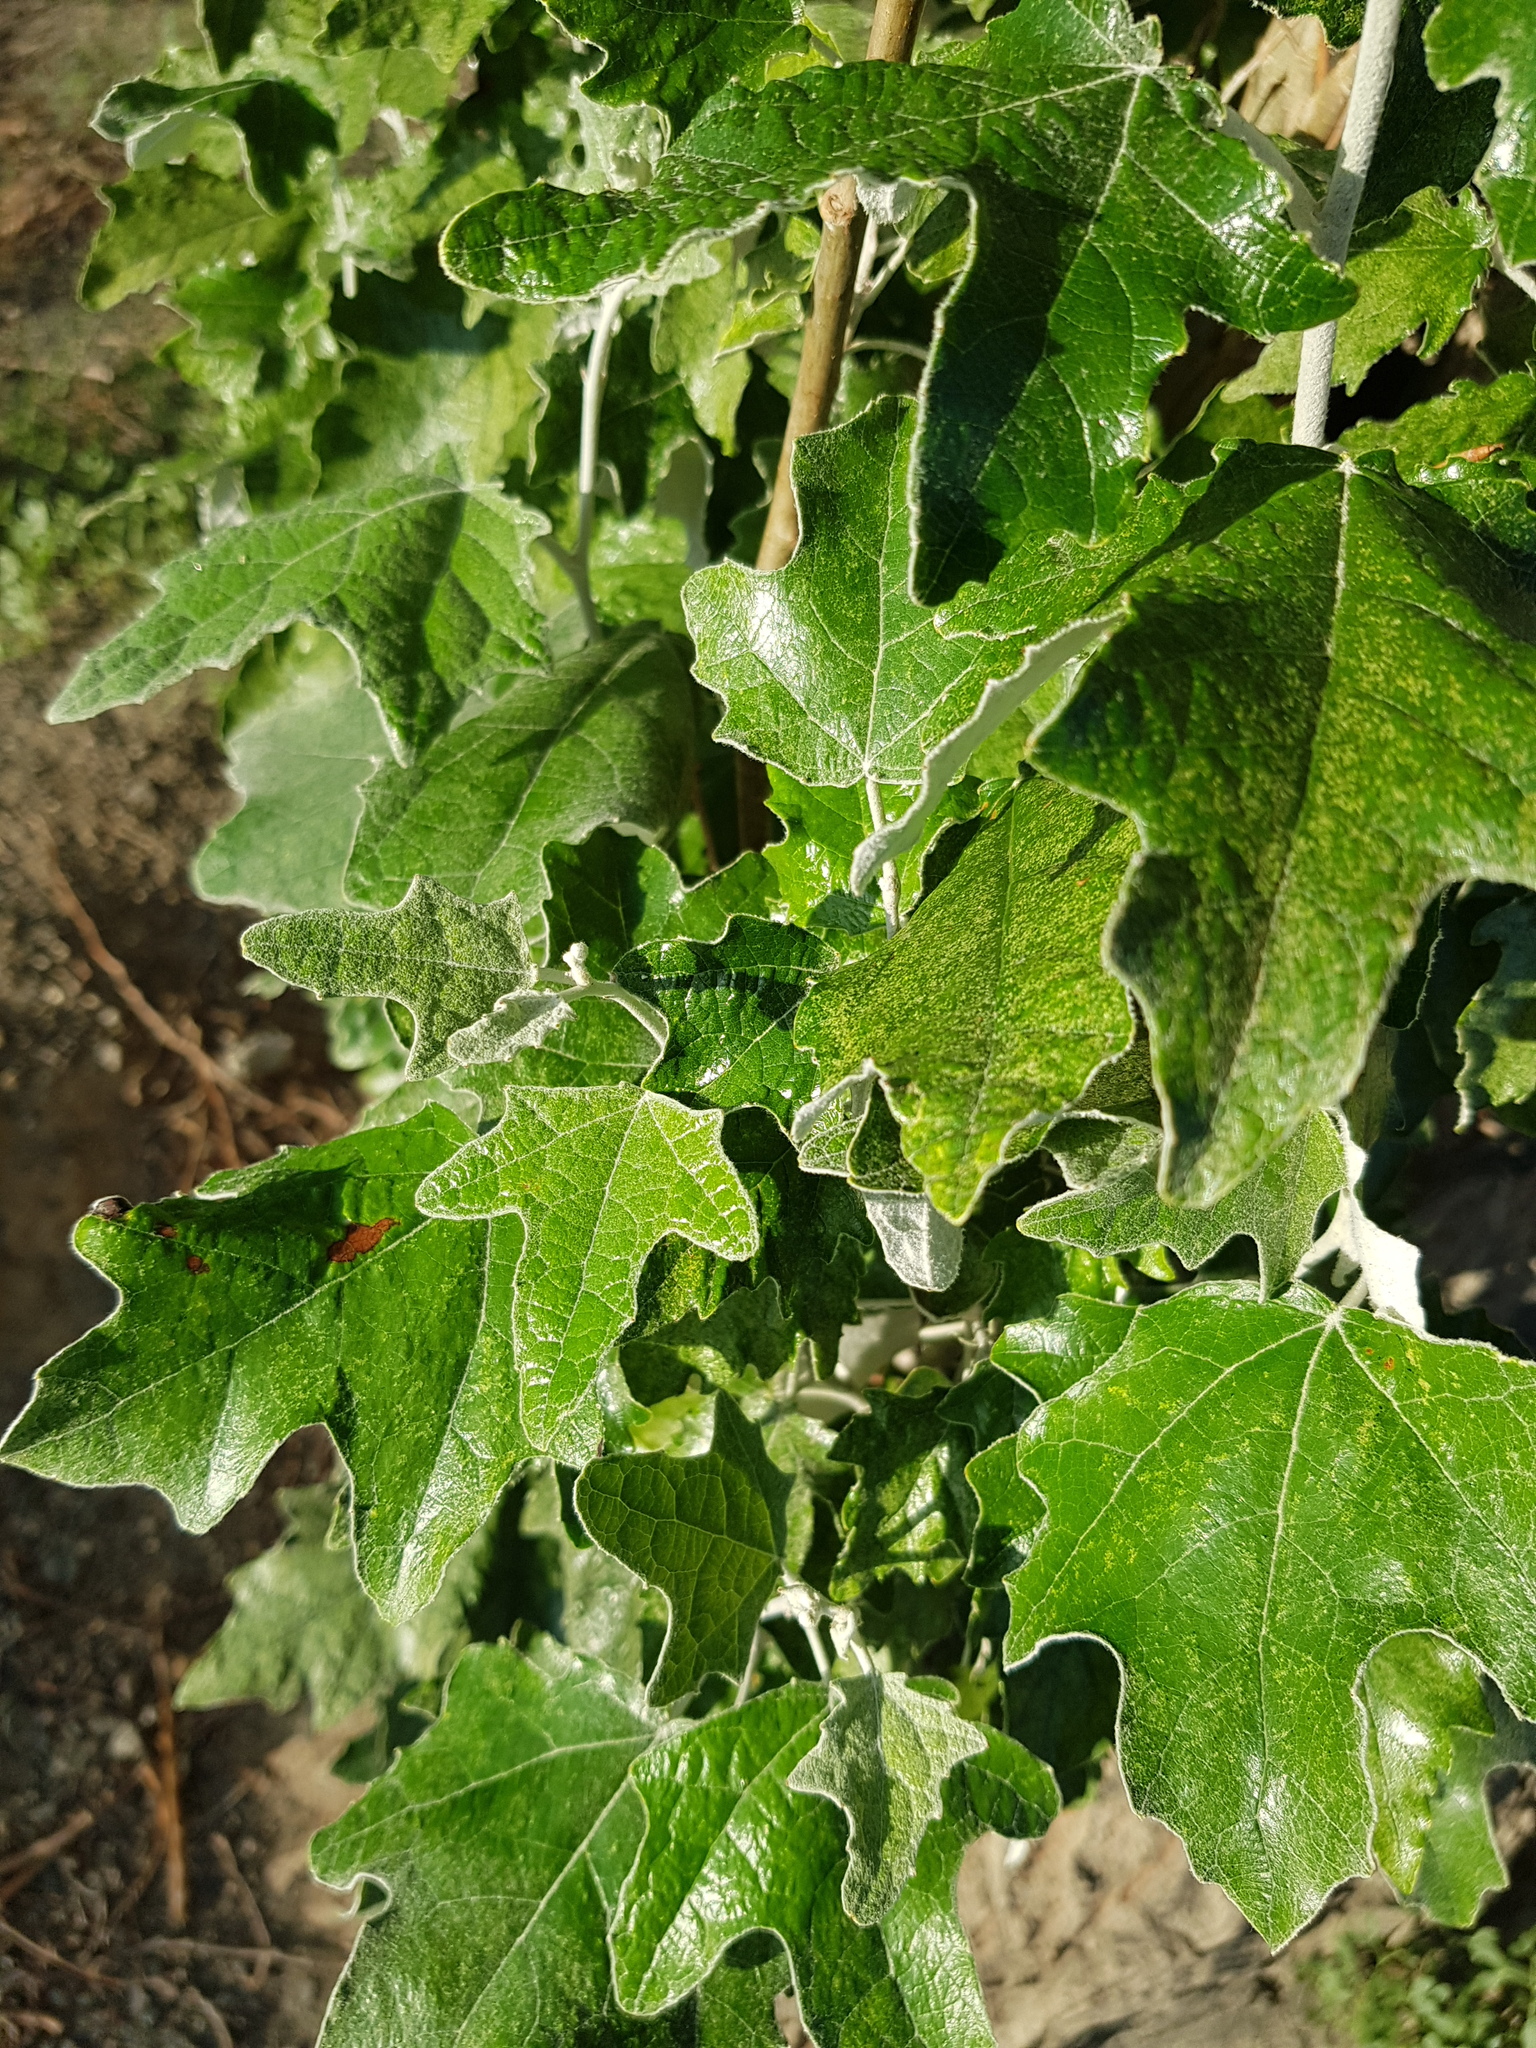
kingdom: Plantae
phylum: Tracheophyta
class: Magnoliopsida
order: Malpighiales
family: Salicaceae
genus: Populus
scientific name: Populus alba
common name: White poplar
